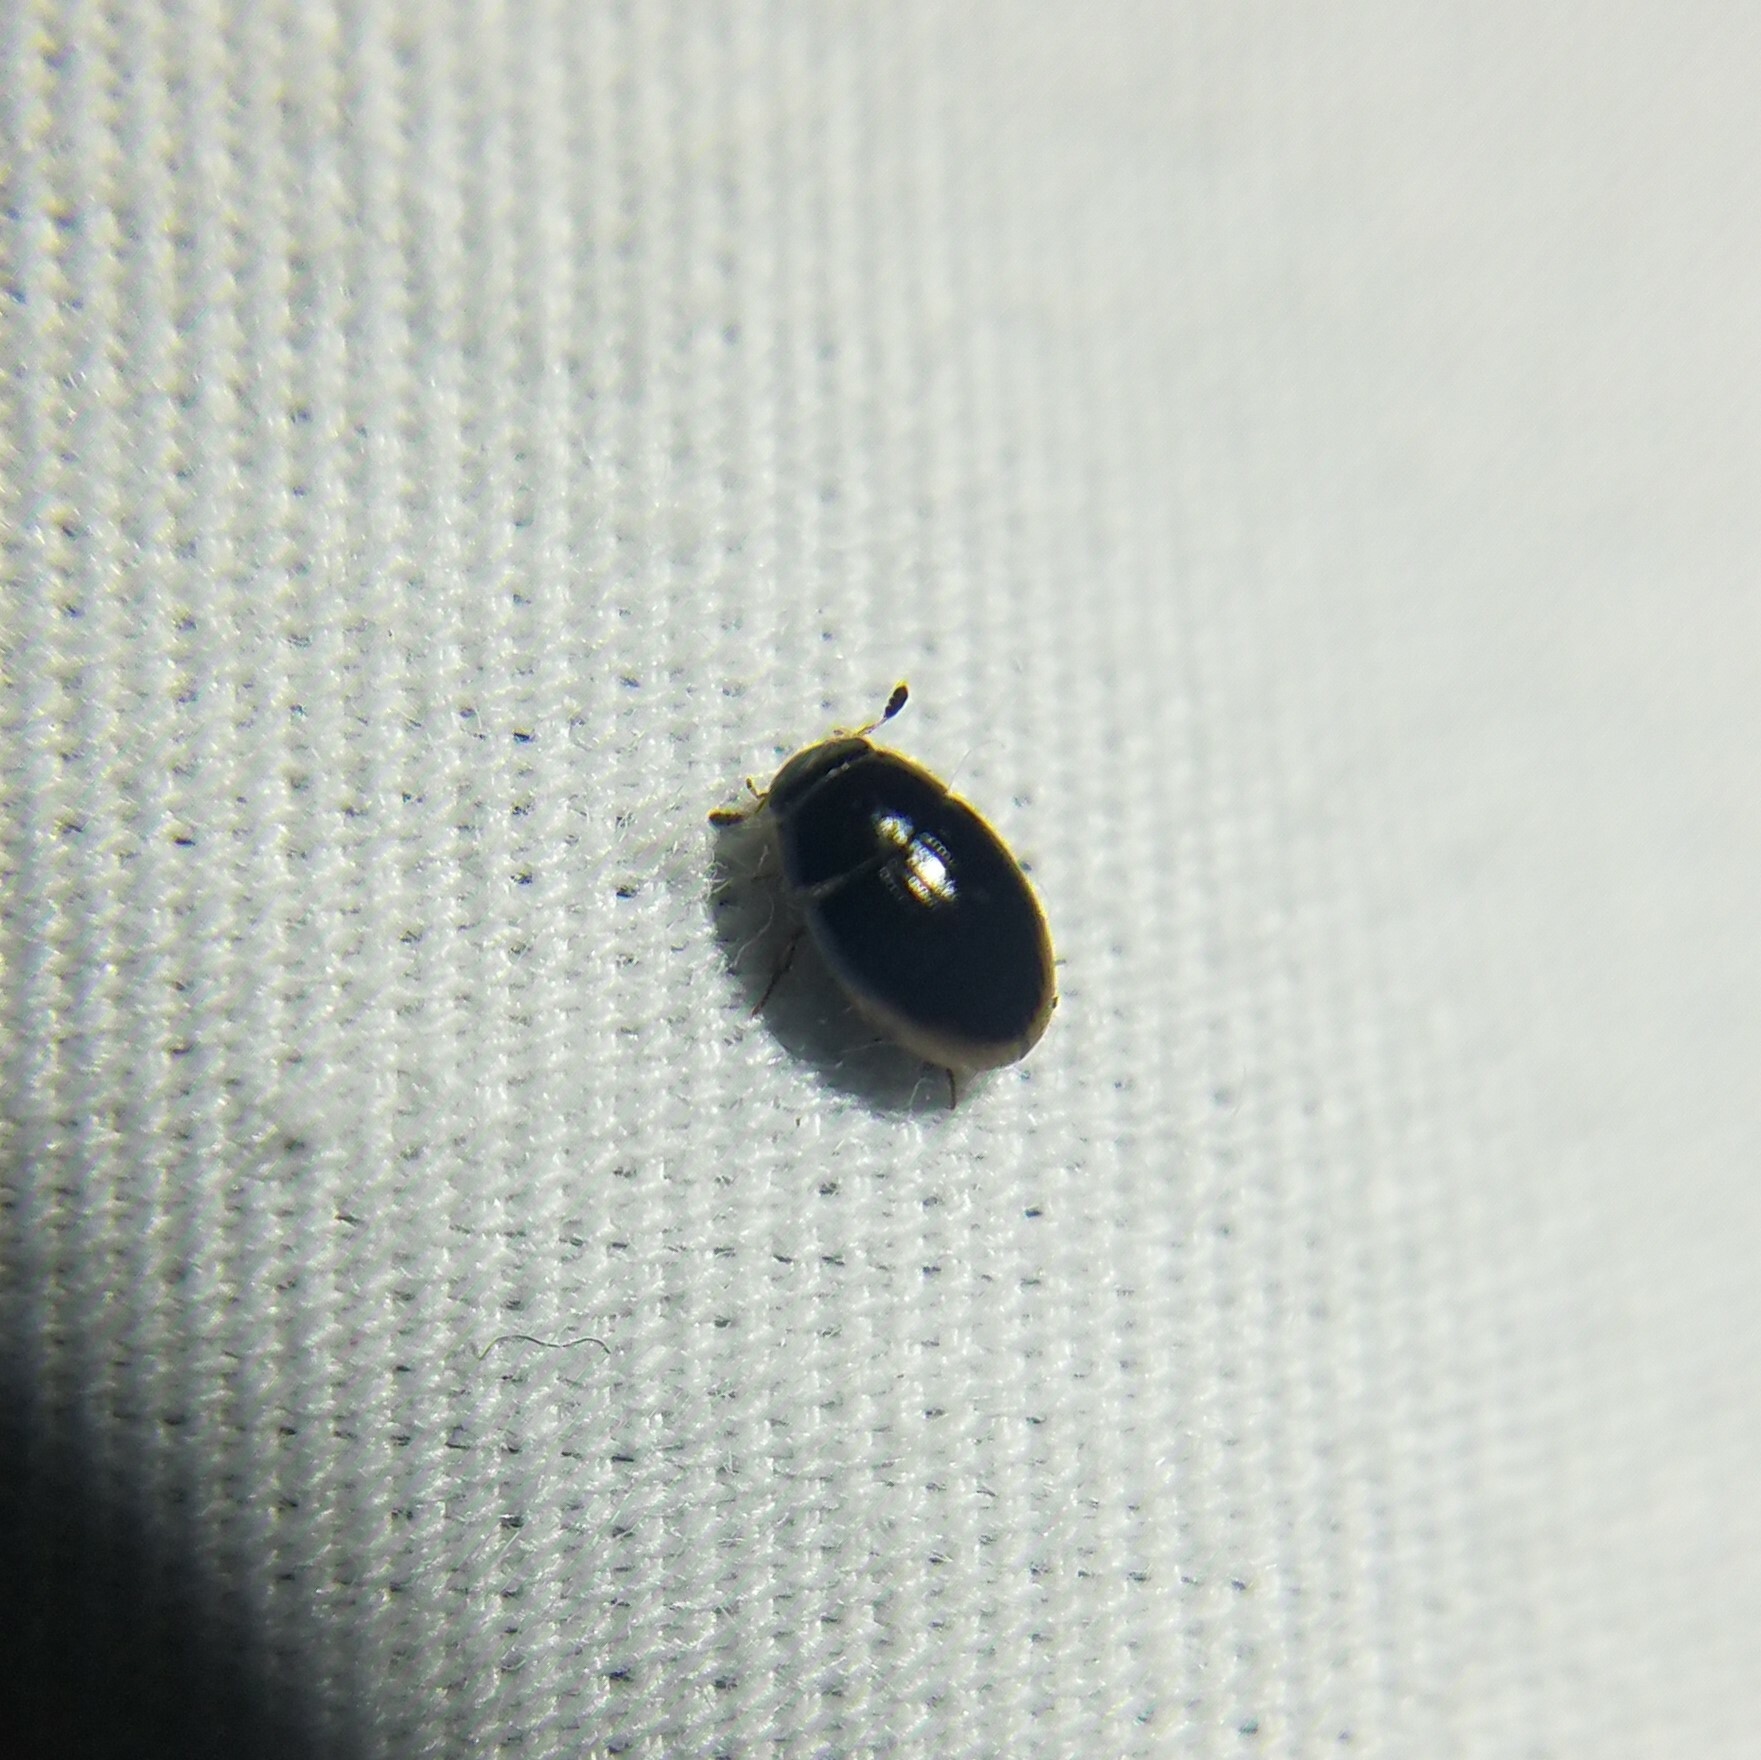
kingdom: Animalia
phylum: Arthropoda
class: Insecta
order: Coleoptera
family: Hydrophilidae
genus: Cercyon
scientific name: Cercyon
